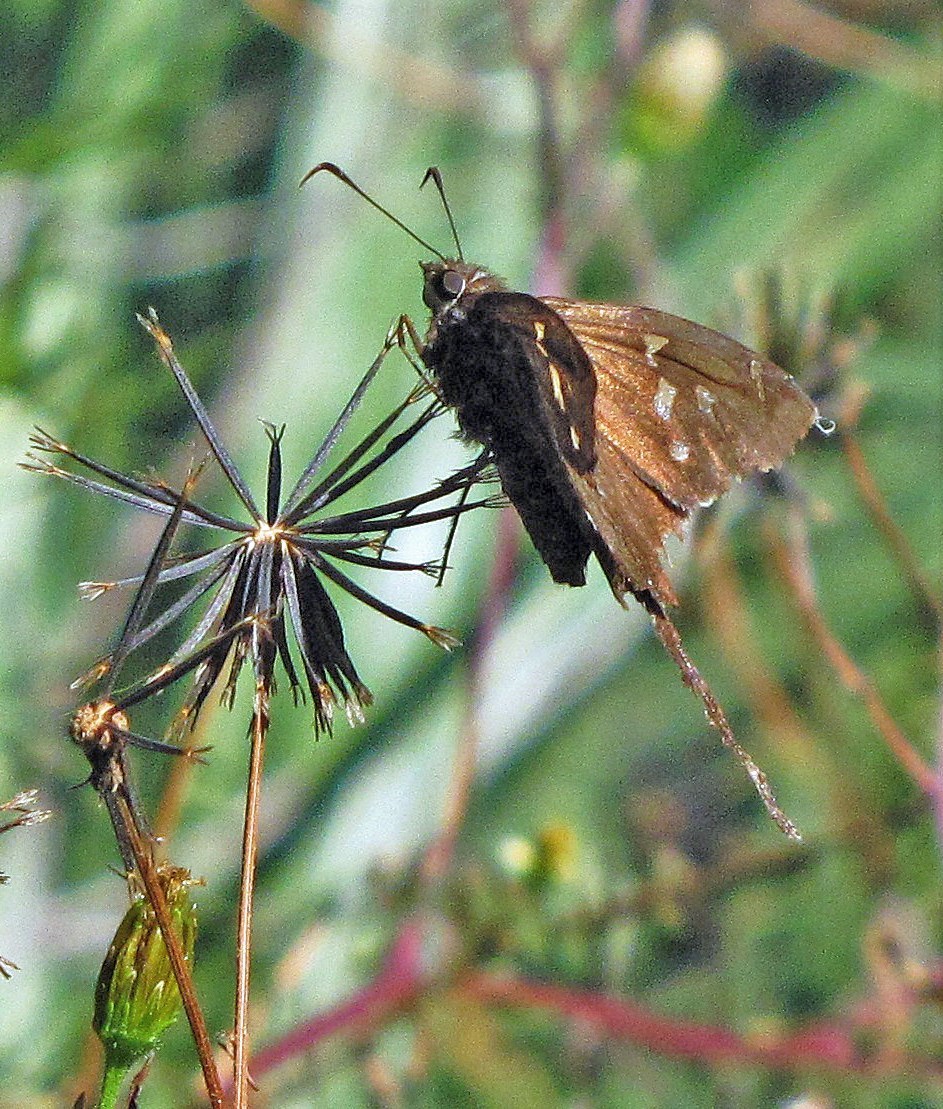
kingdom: Animalia
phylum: Arthropoda
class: Insecta
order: Lepidoptera
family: Hesperiidae
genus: Chioides
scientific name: Chioides catillus
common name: Silverbanded skipper
